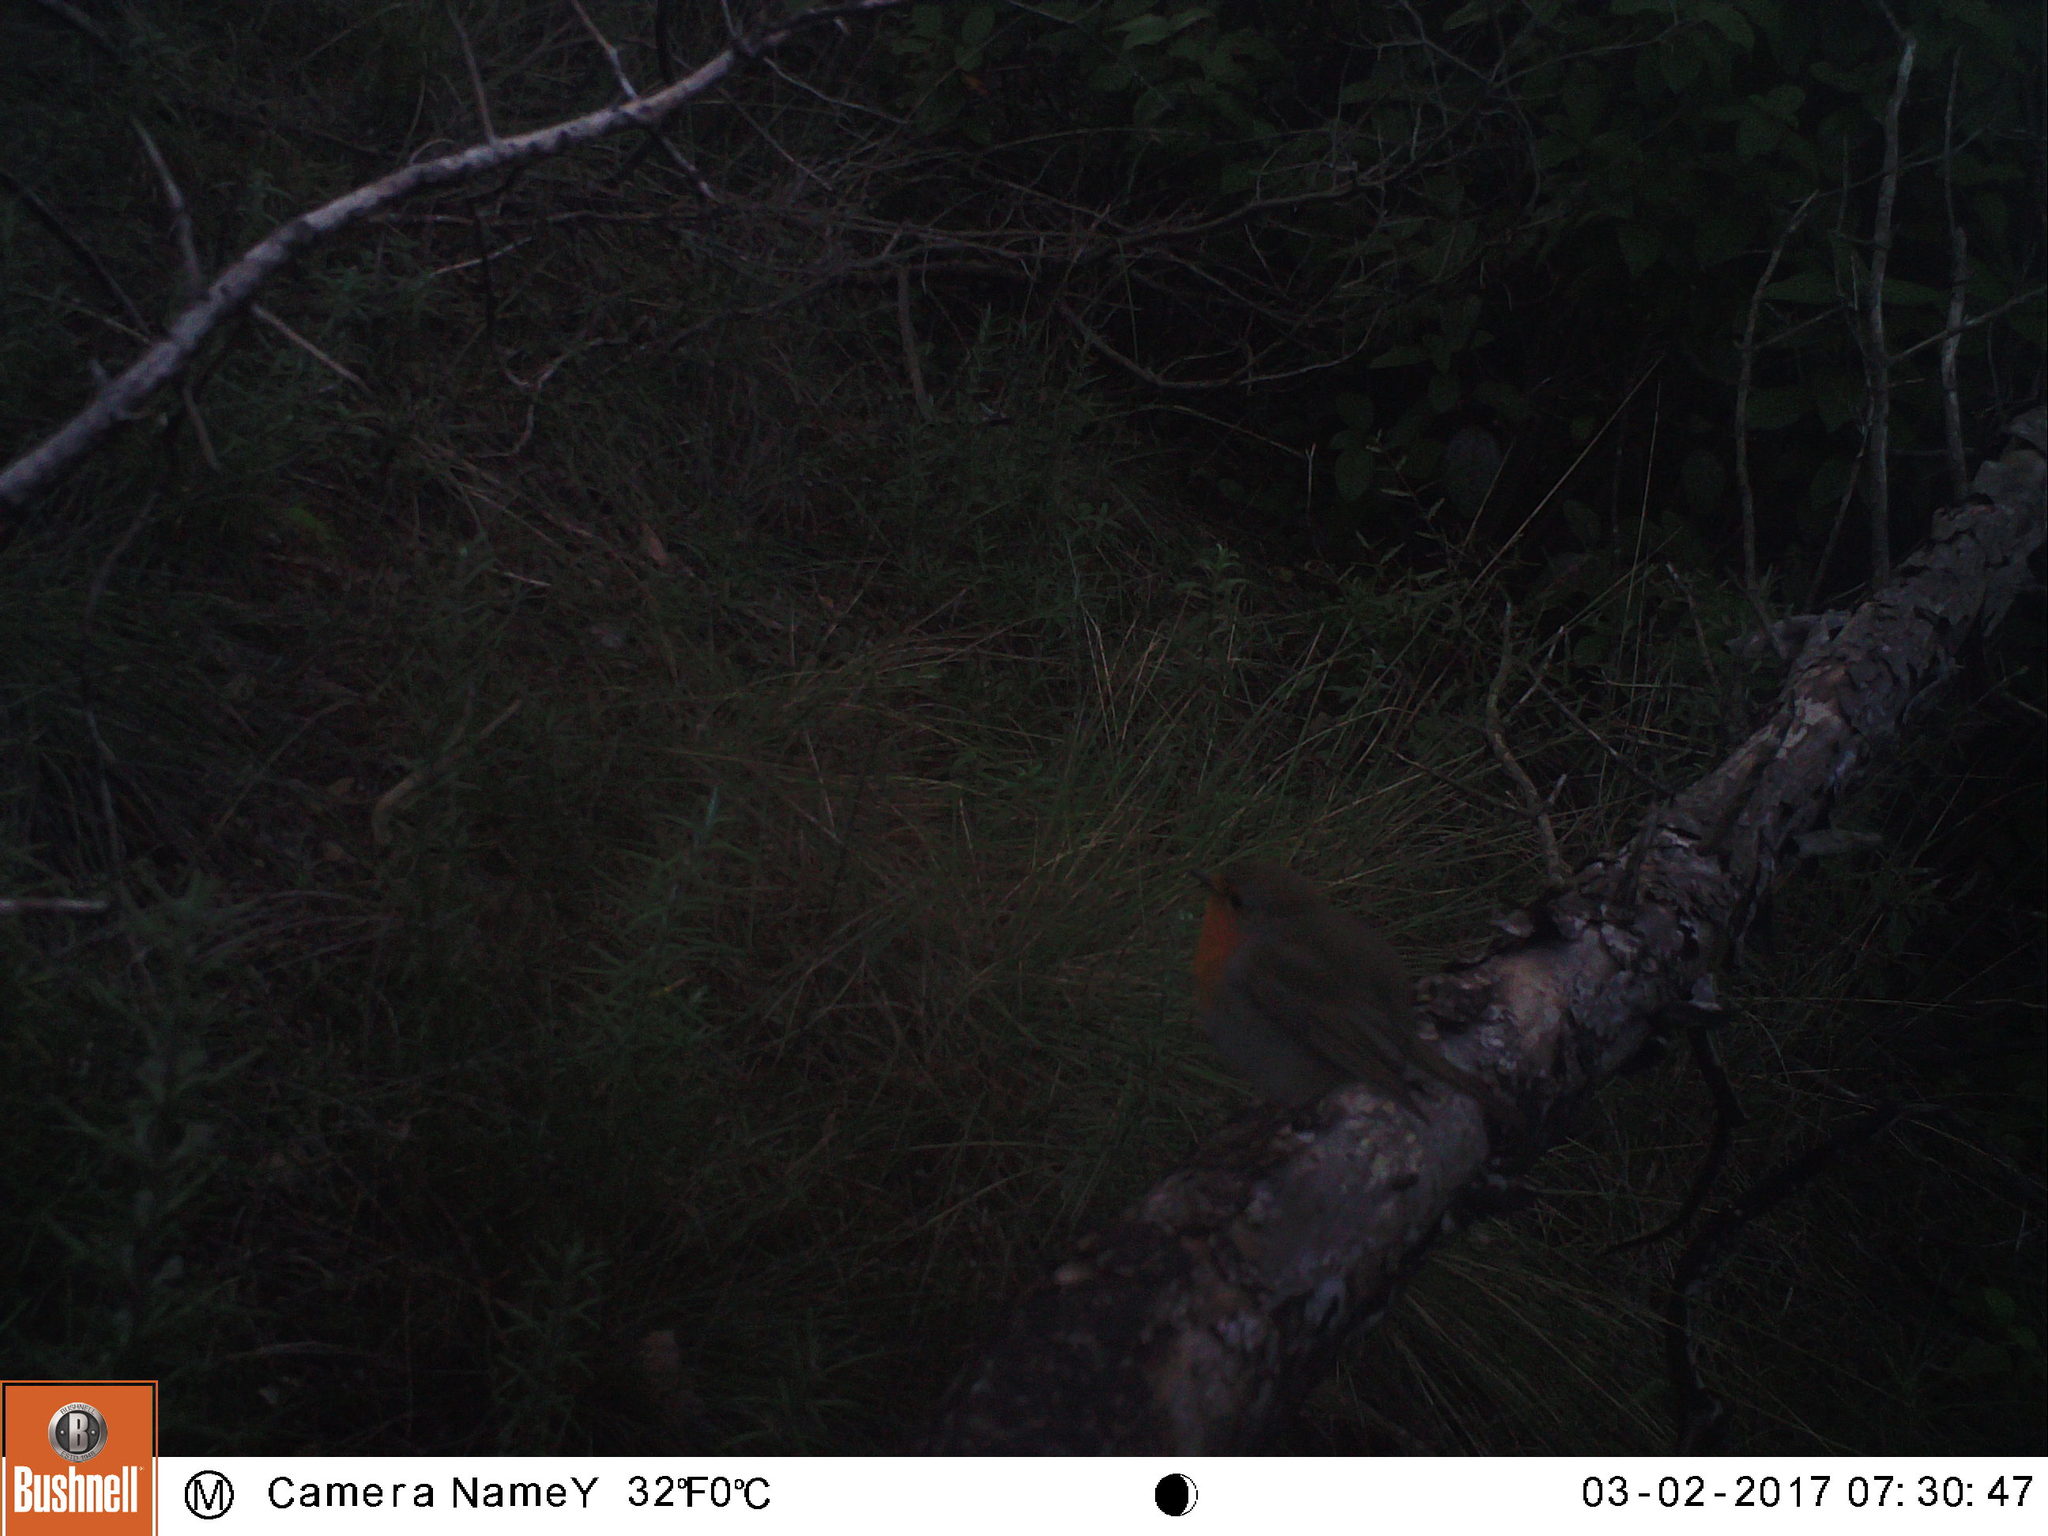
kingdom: Animalia
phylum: Chordata
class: Aves
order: Passeriformes
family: Muscicapidae
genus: Erithacus
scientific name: Erithacus rubecula
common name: European robin
